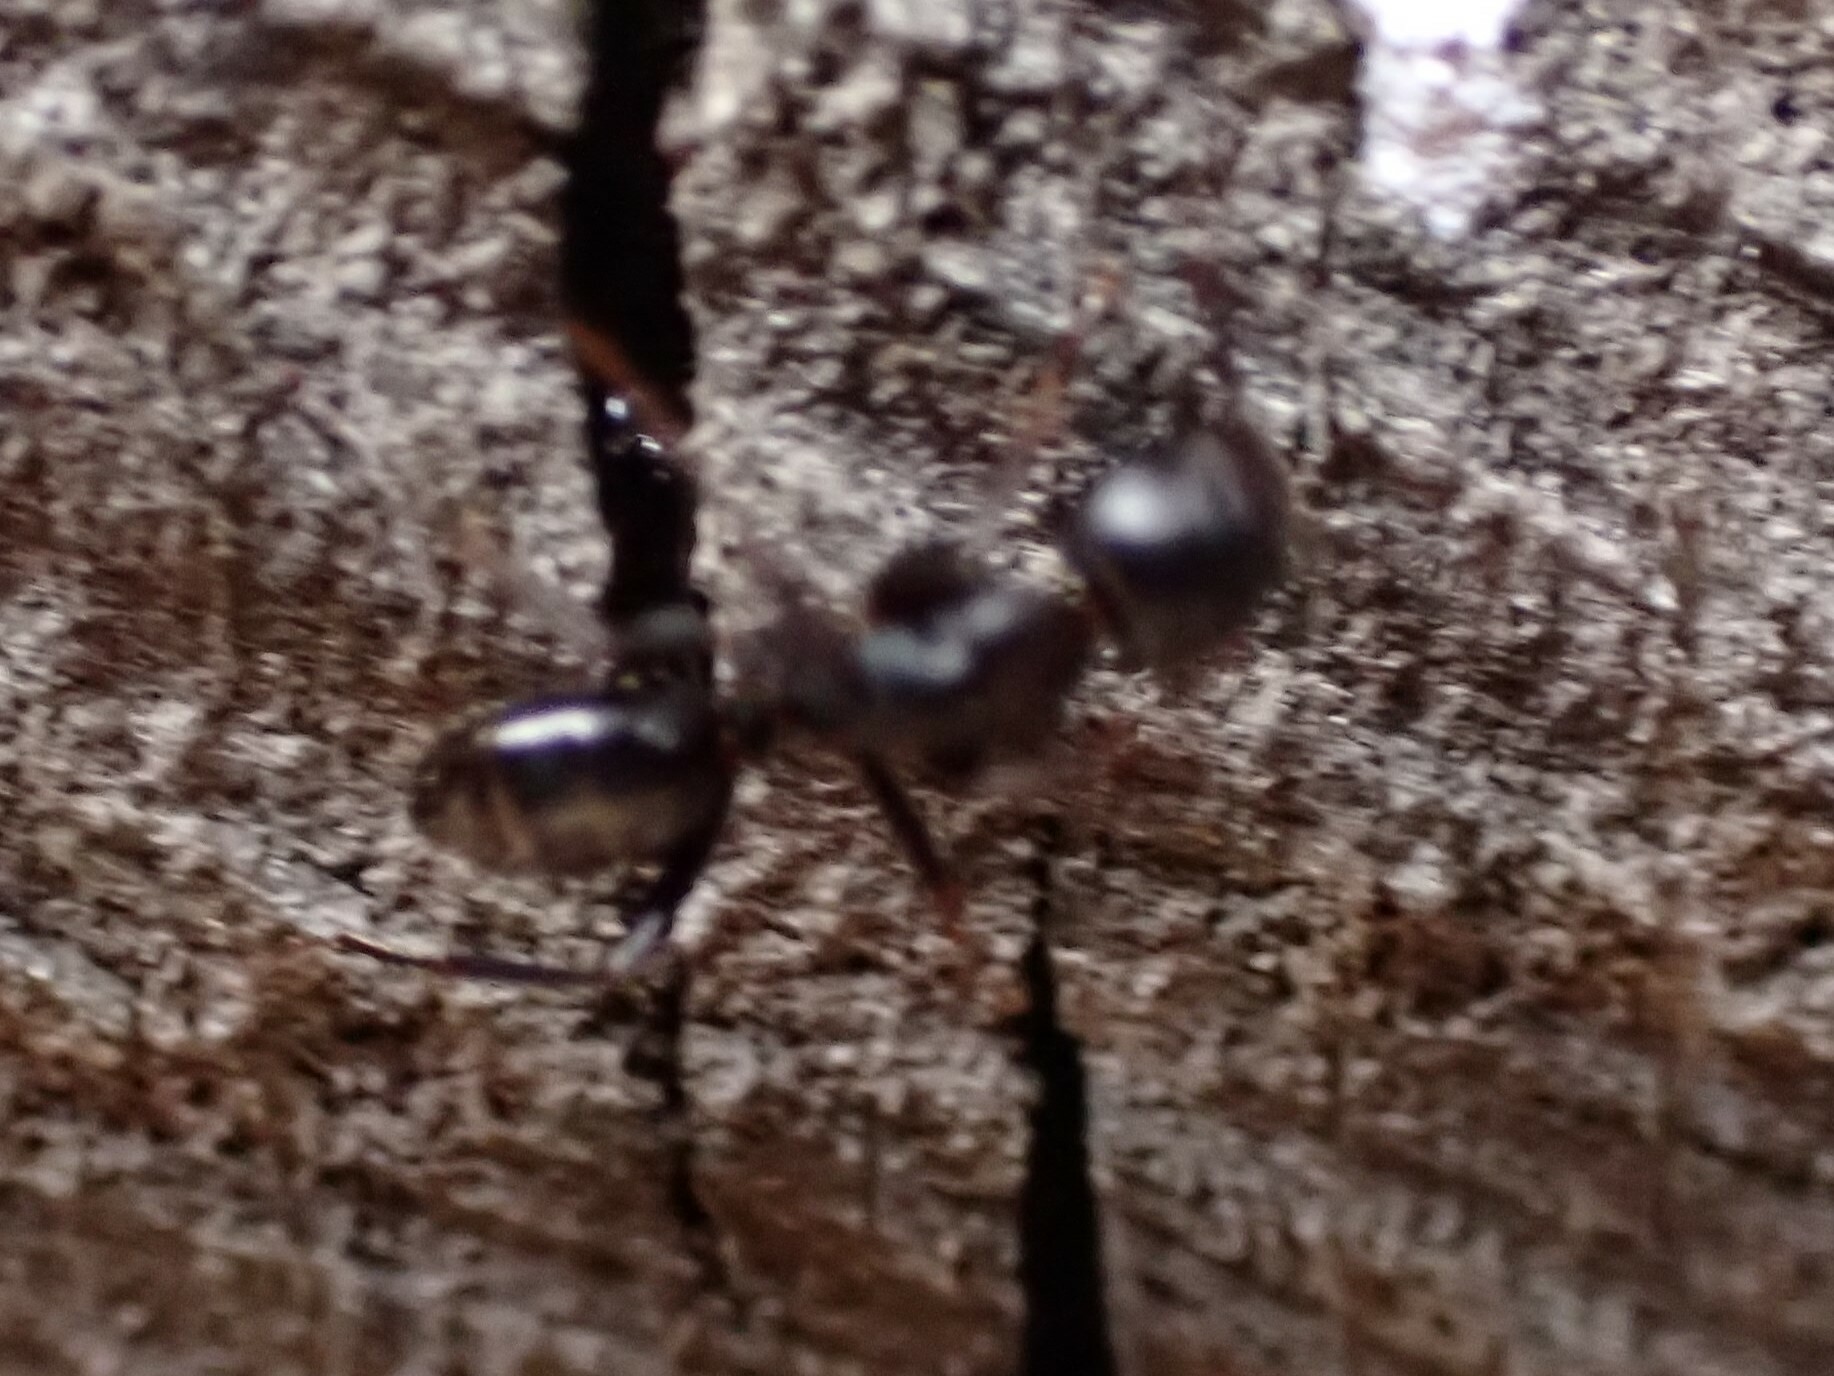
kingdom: Animalia
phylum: Arthropoda
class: Insecta
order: Hymenoptera
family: Formicidae
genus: Camponotus
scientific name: Camponotus nearcticus
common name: Smaller carpenter ant
